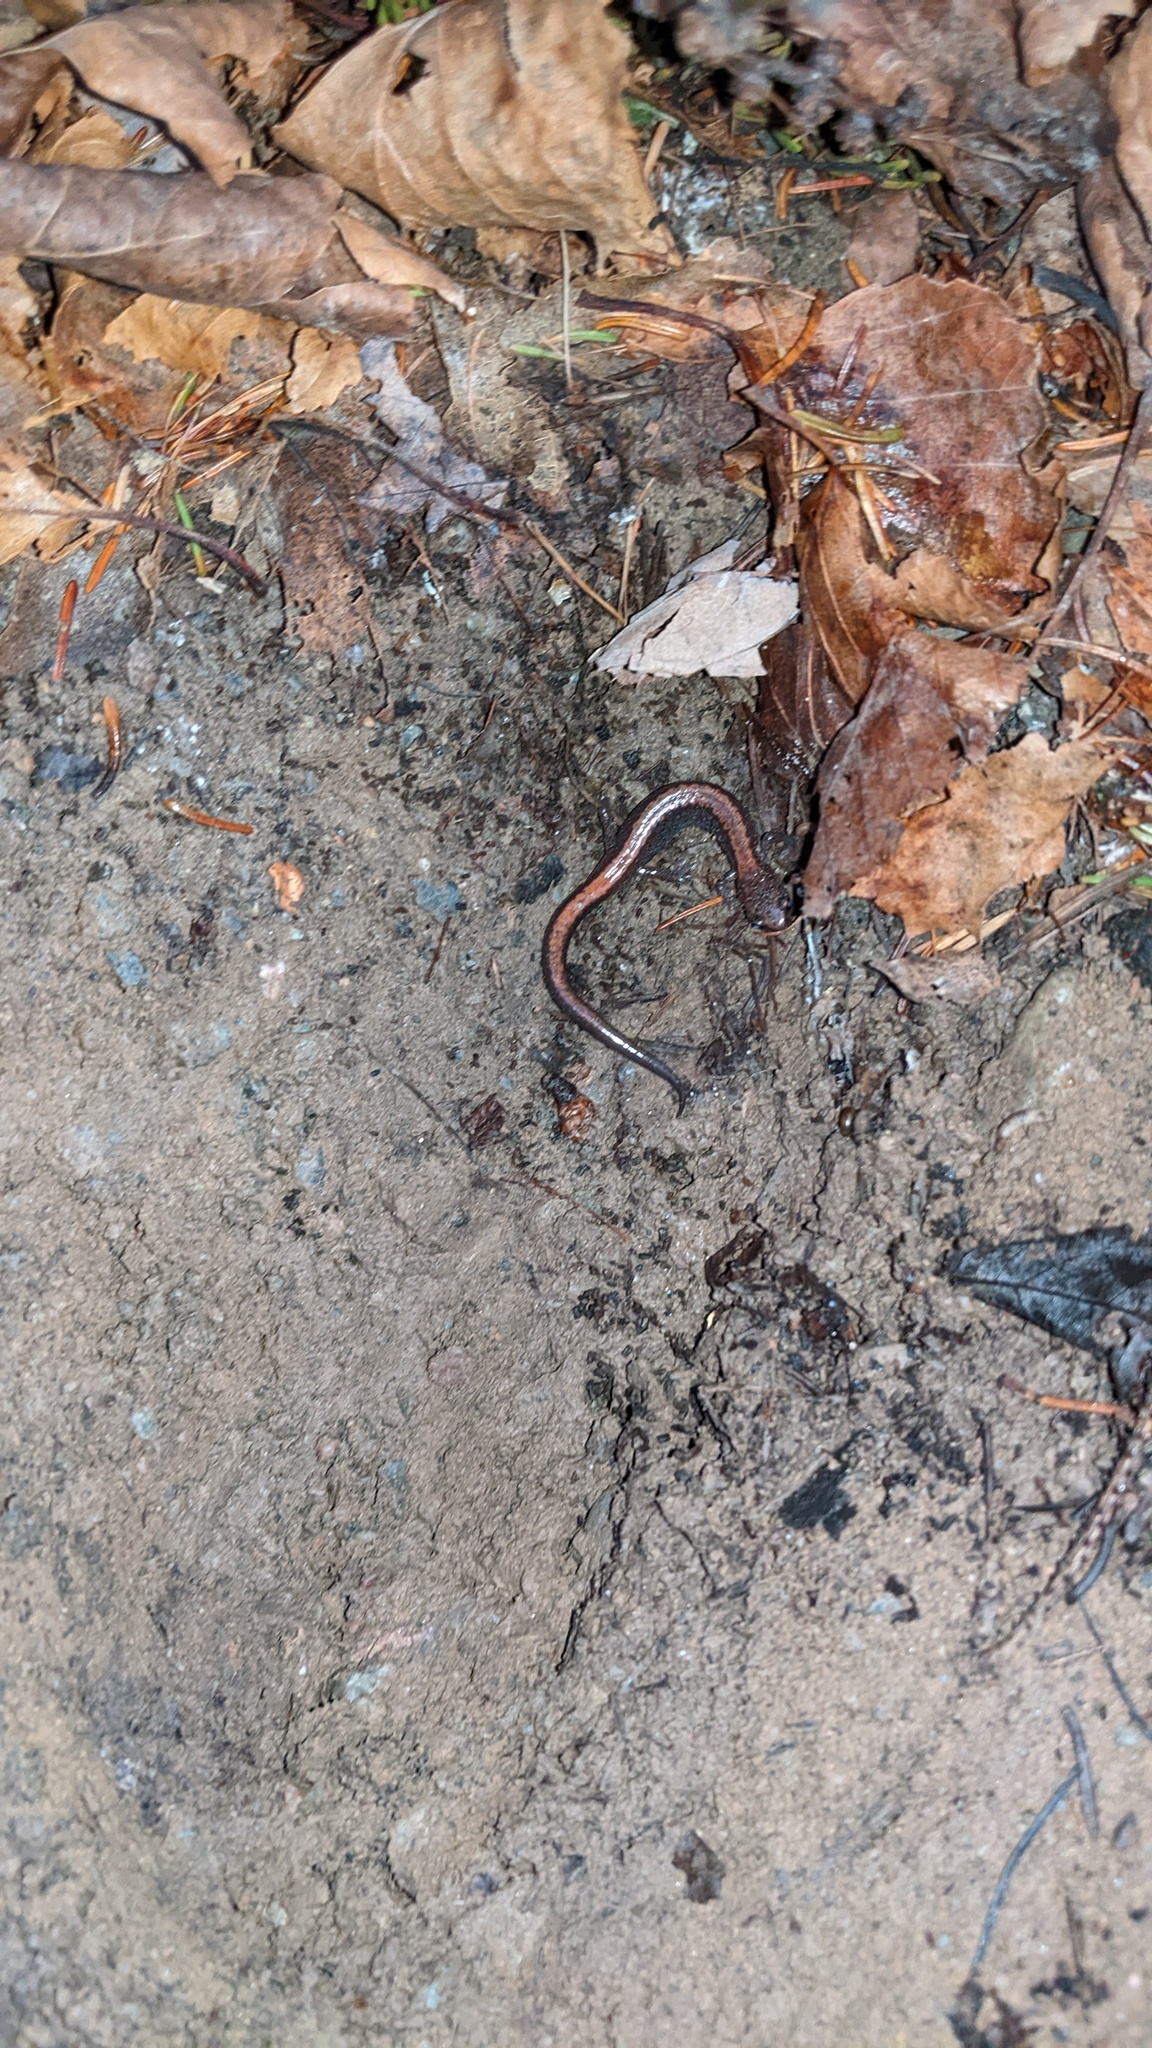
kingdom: Animalia
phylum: Chordata
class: Amphibia
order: Caudata
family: Plethodontidae
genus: Plethodon
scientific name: Plethodon cinereus
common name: Redback salamander
